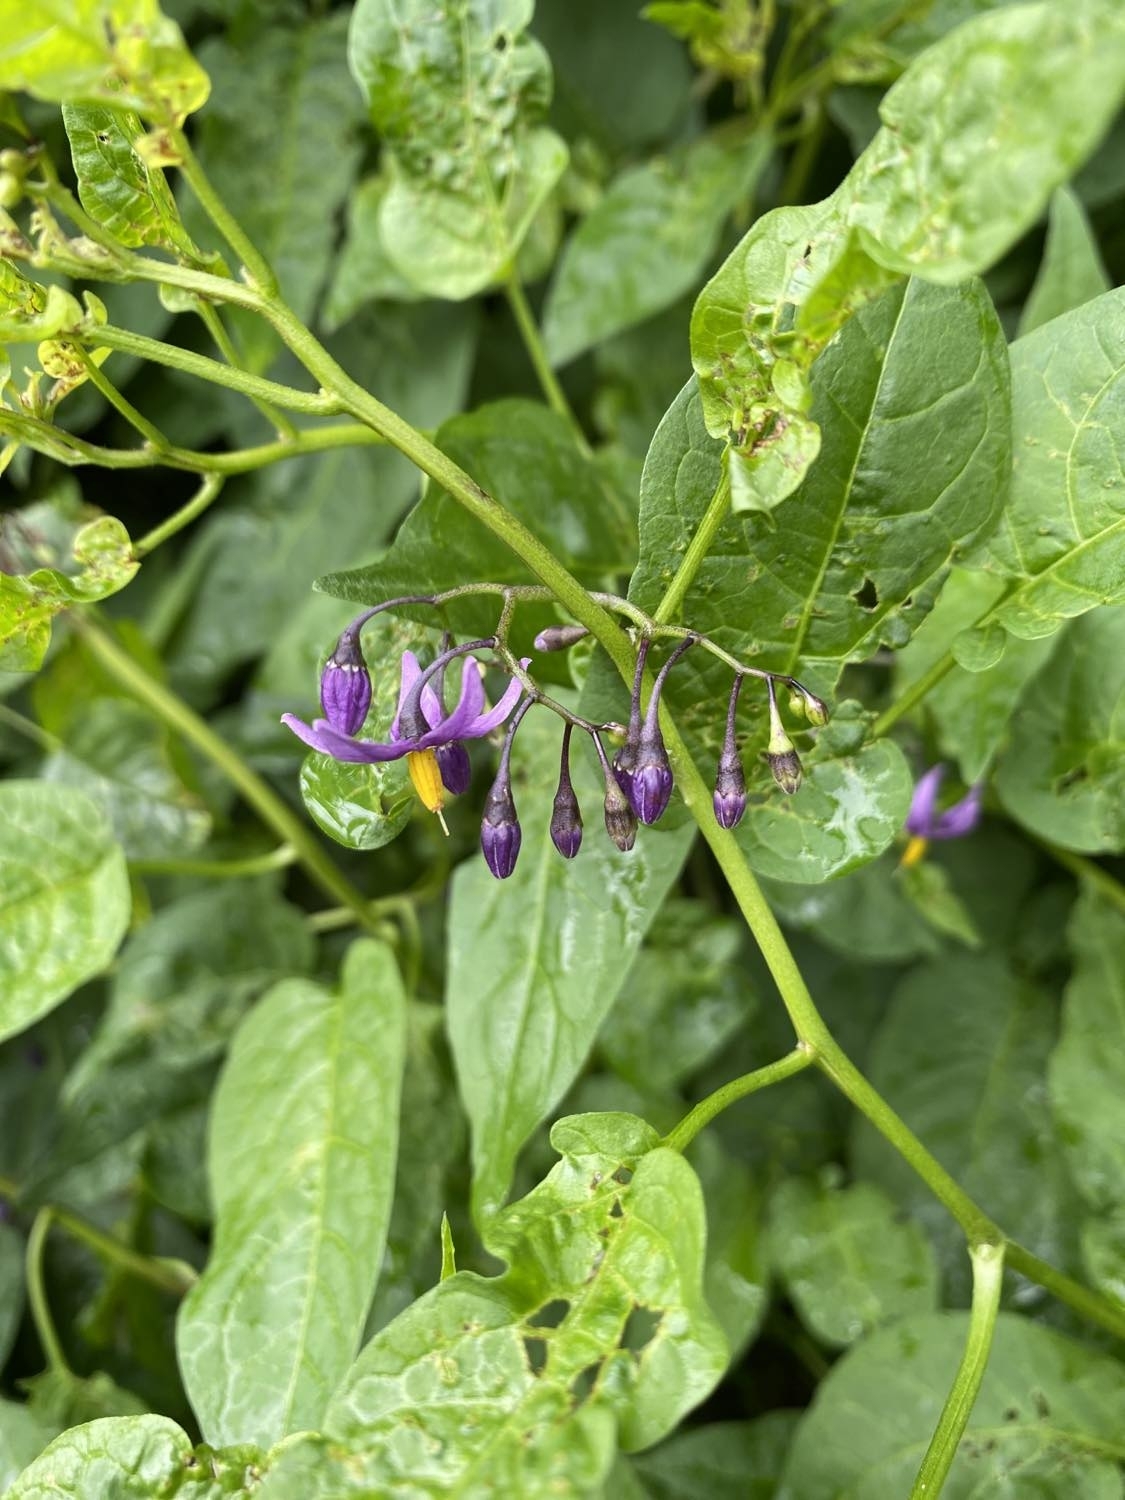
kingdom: Plantae
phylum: Tracheophyta
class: Magnoliopsida
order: Solanales
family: Solanaceae
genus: Solanum
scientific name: Solanum dulcamara
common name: Climbing nightshade
